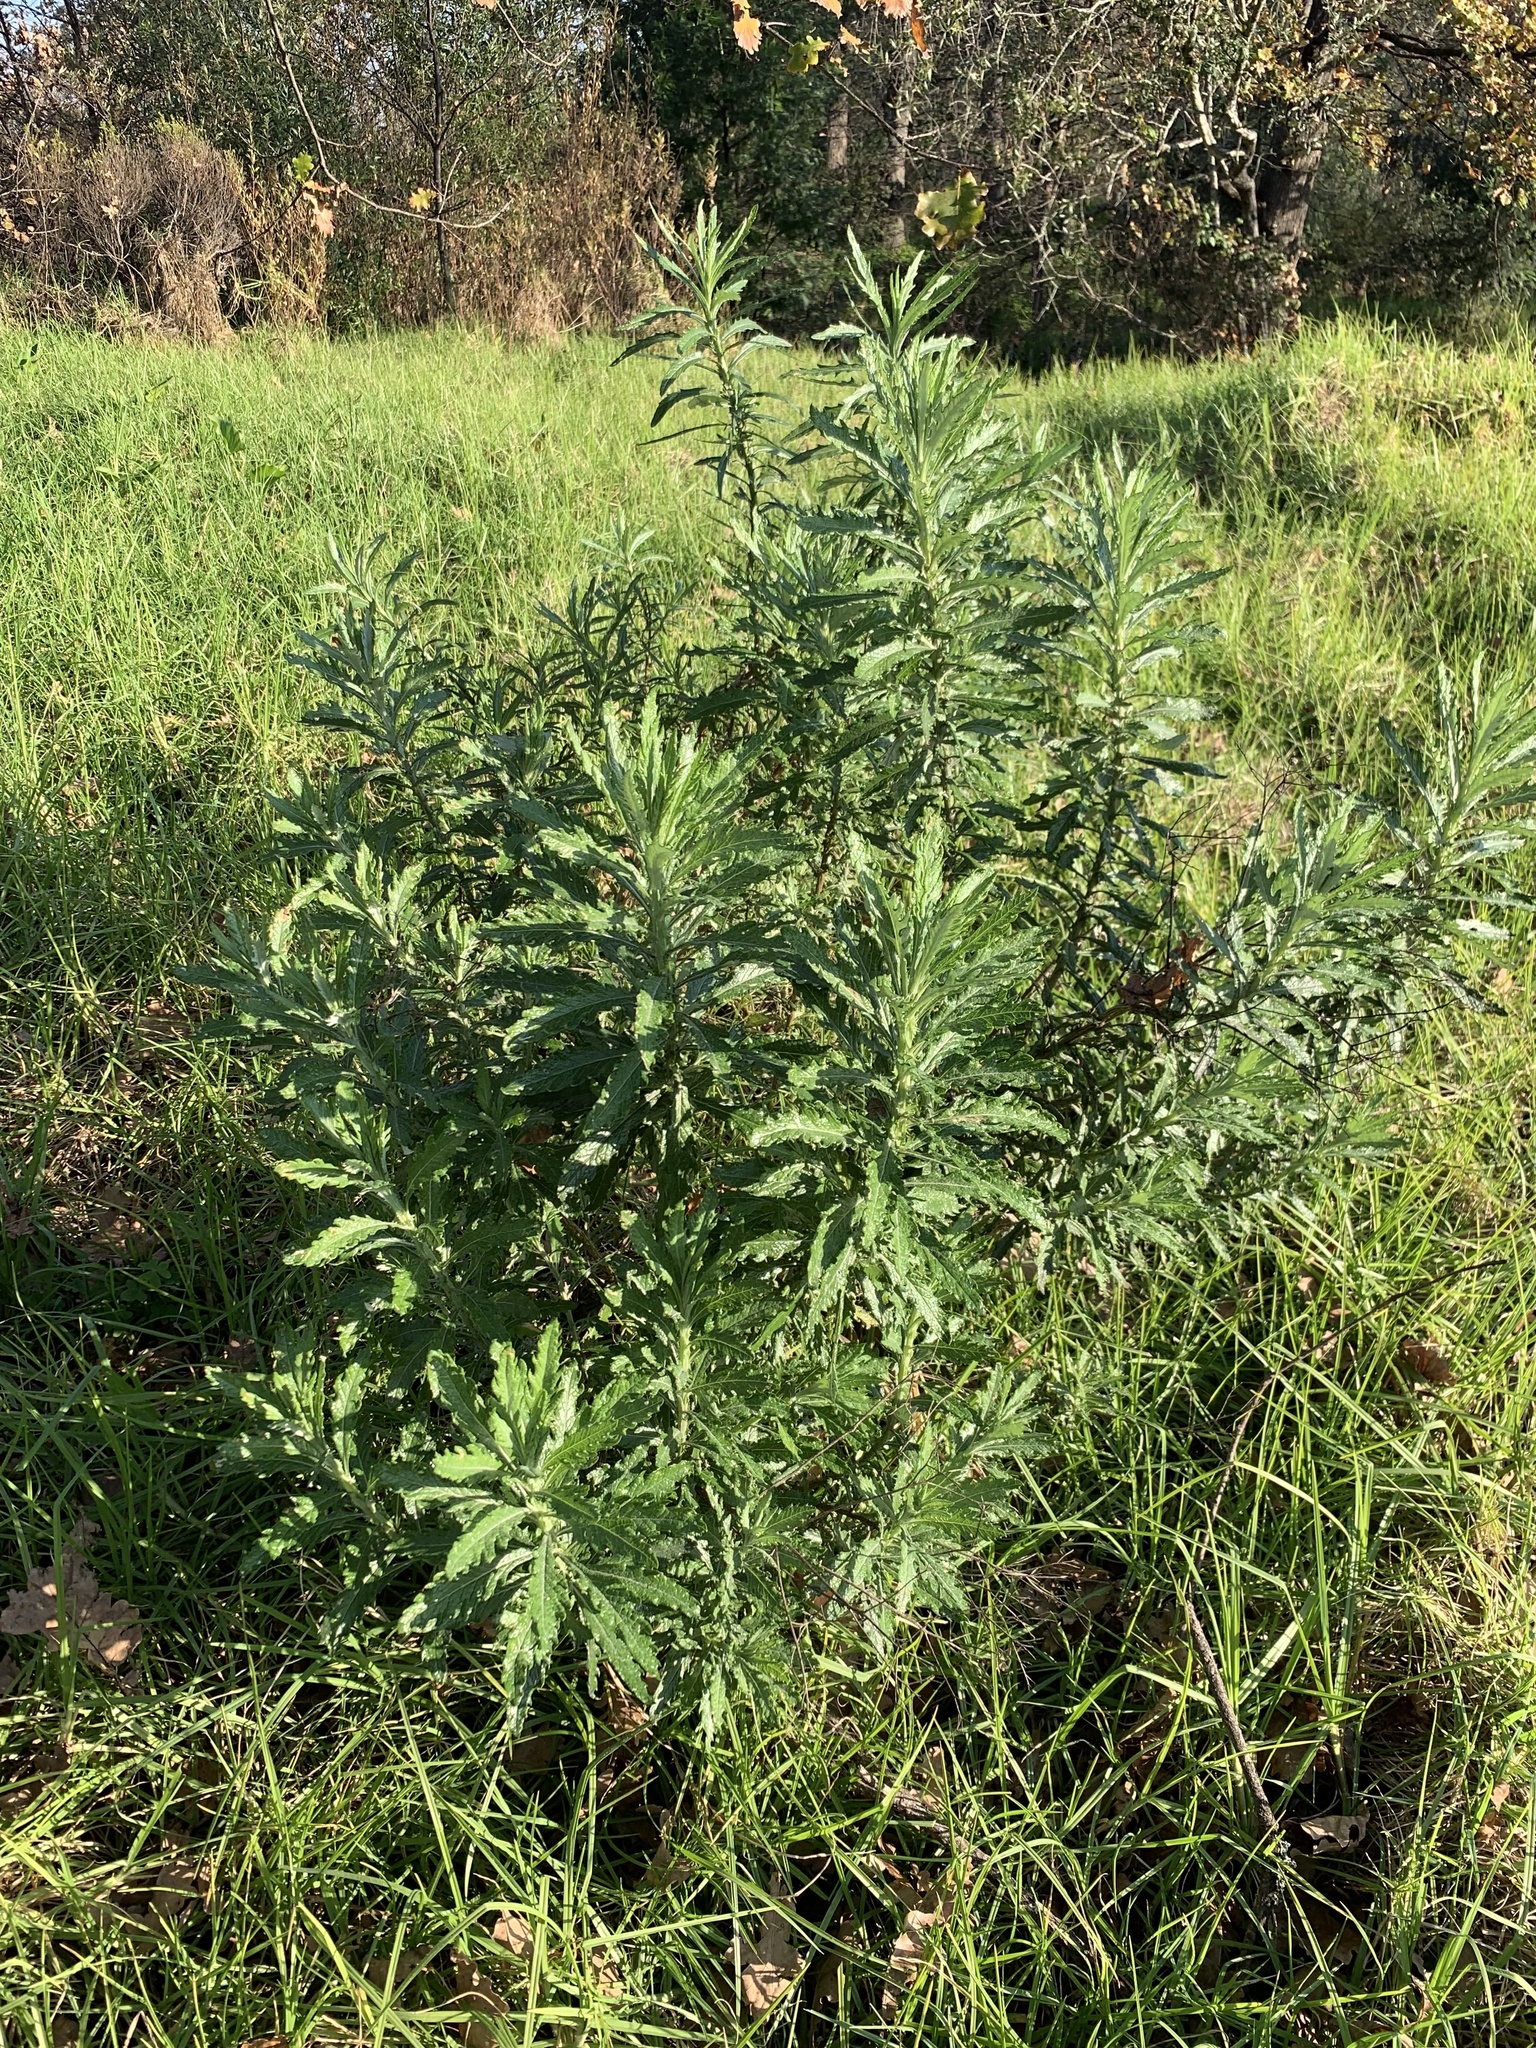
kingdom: Plantae
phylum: Tracheophyta
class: Magnoliopsida
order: Asterales
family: Asteraceae
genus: Senecio
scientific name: Senecio pterophorus
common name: Shoddy ragwort
